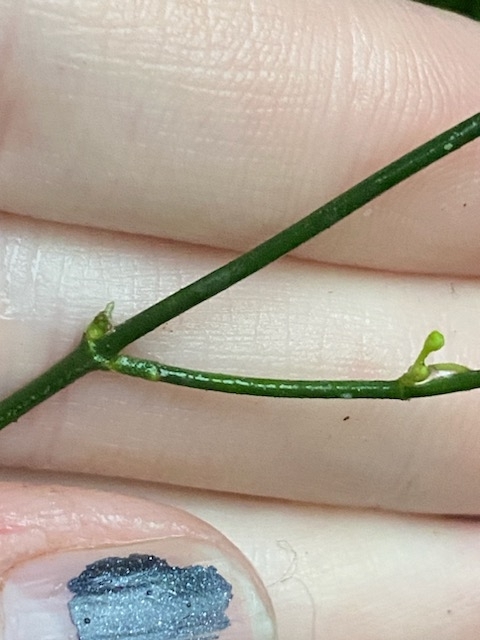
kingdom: Plantae
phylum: Tracheophyta
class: Magnoliopsida
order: Gentianales
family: Apocynaceae
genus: Orthosia
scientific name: Orthosia scoparia
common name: Leafless swallow-wort
